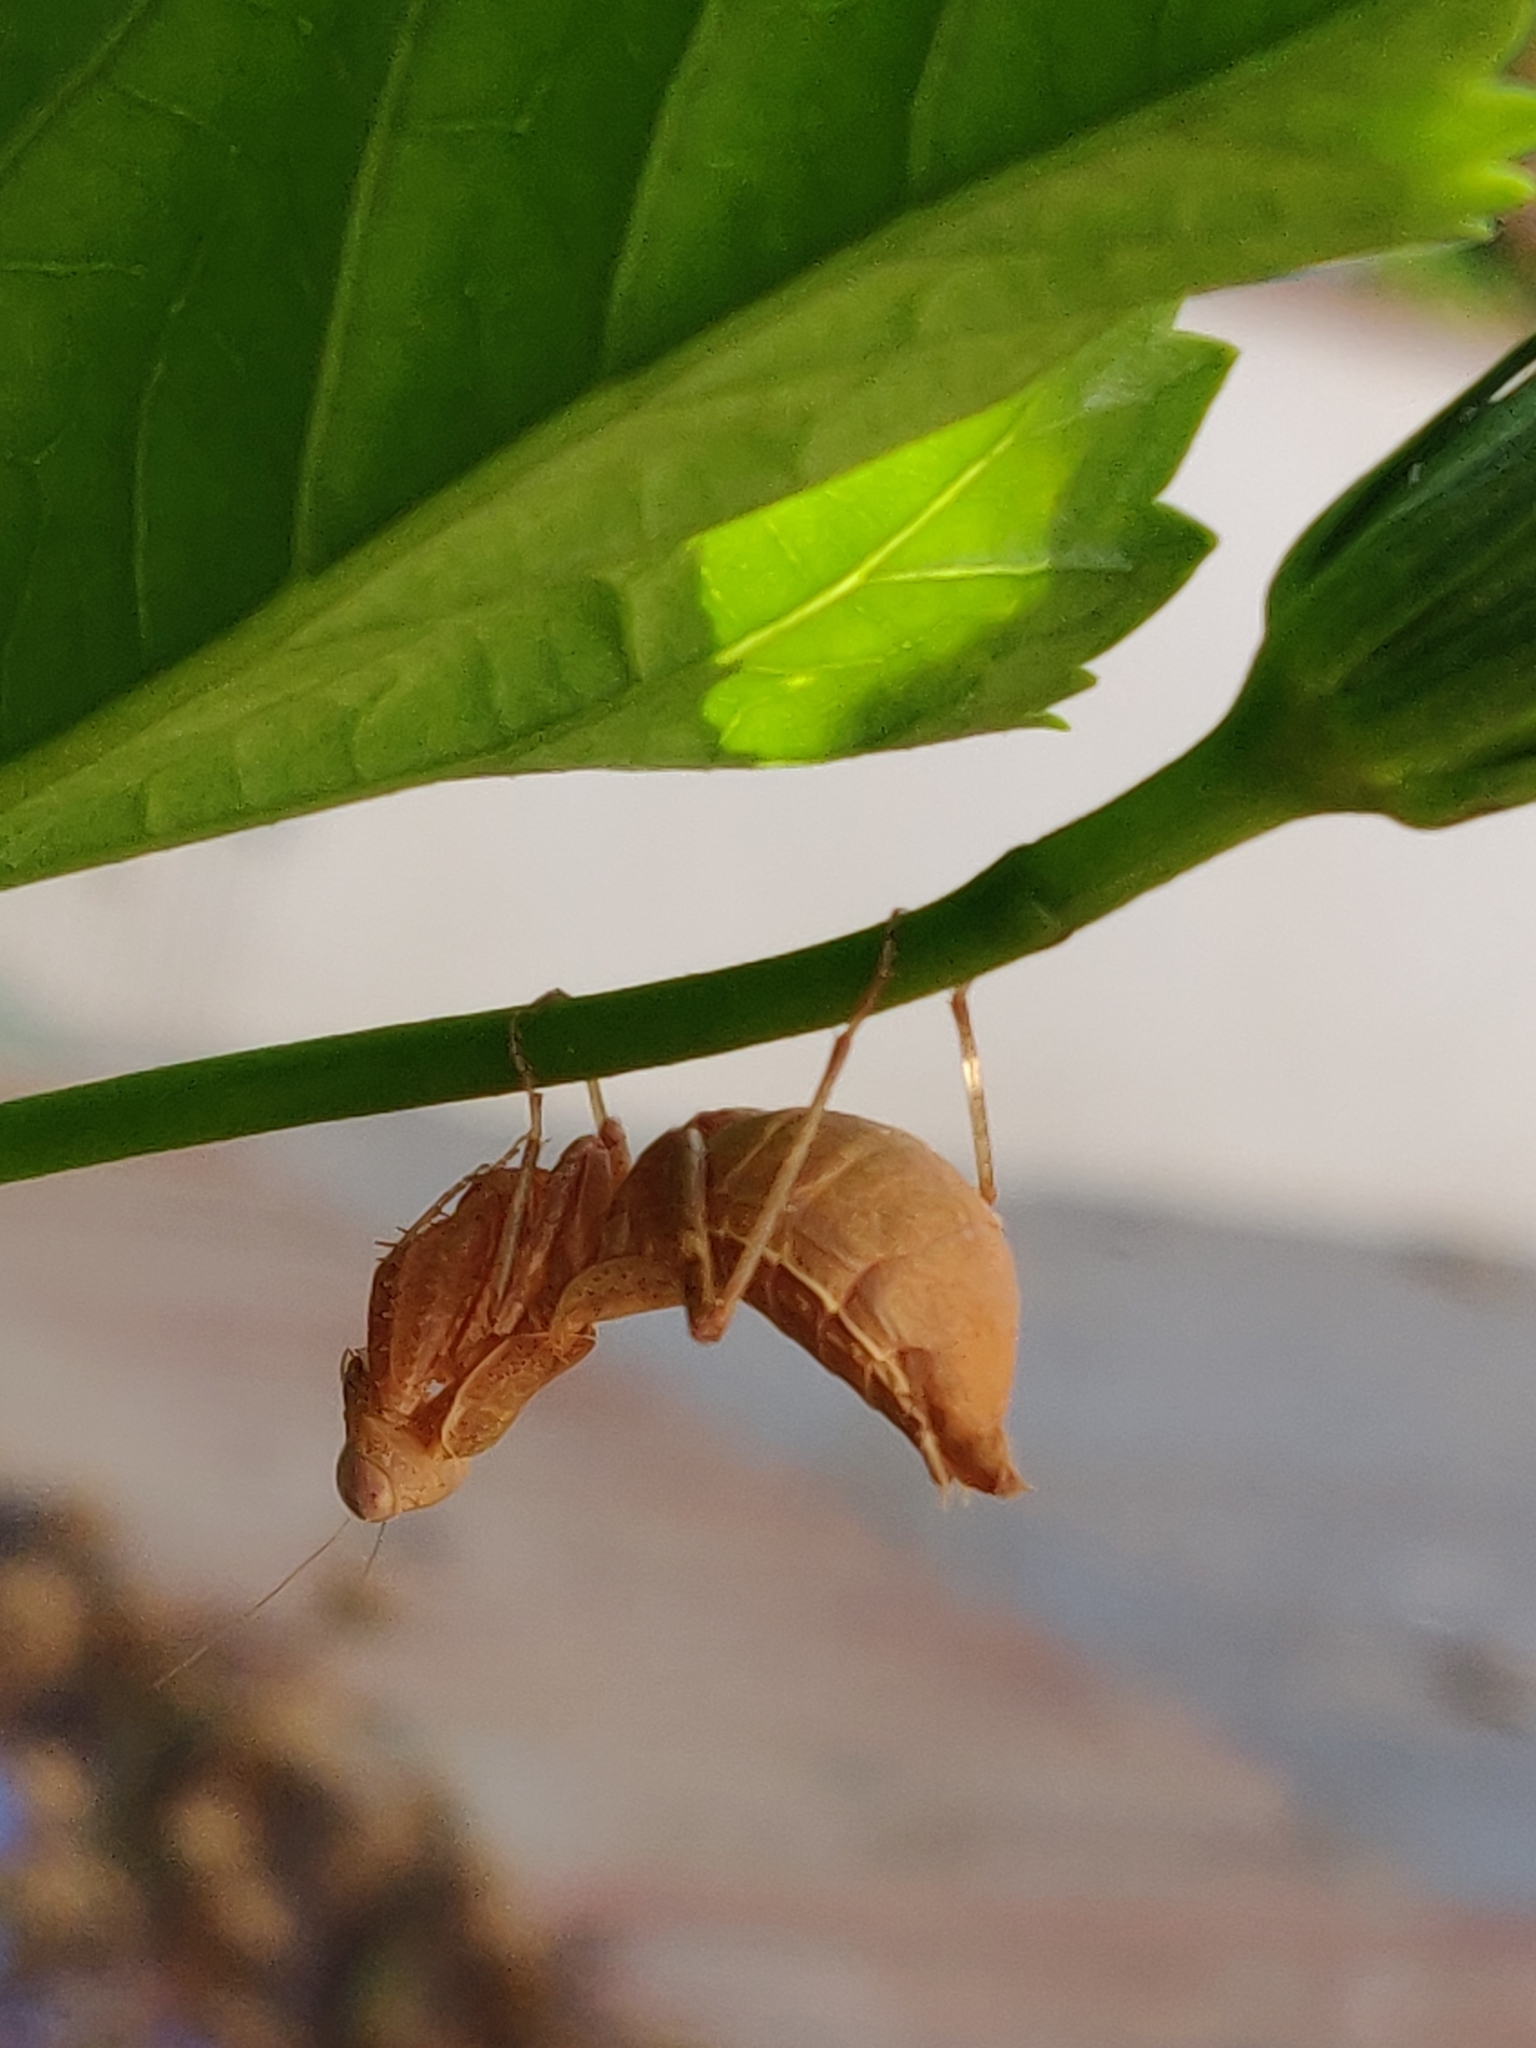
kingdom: Animalia
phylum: Arthropoda
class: Insecta
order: Mantodea
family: Amelidae
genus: Ameles
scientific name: Ameles spallanzania
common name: European dwarf mantis
